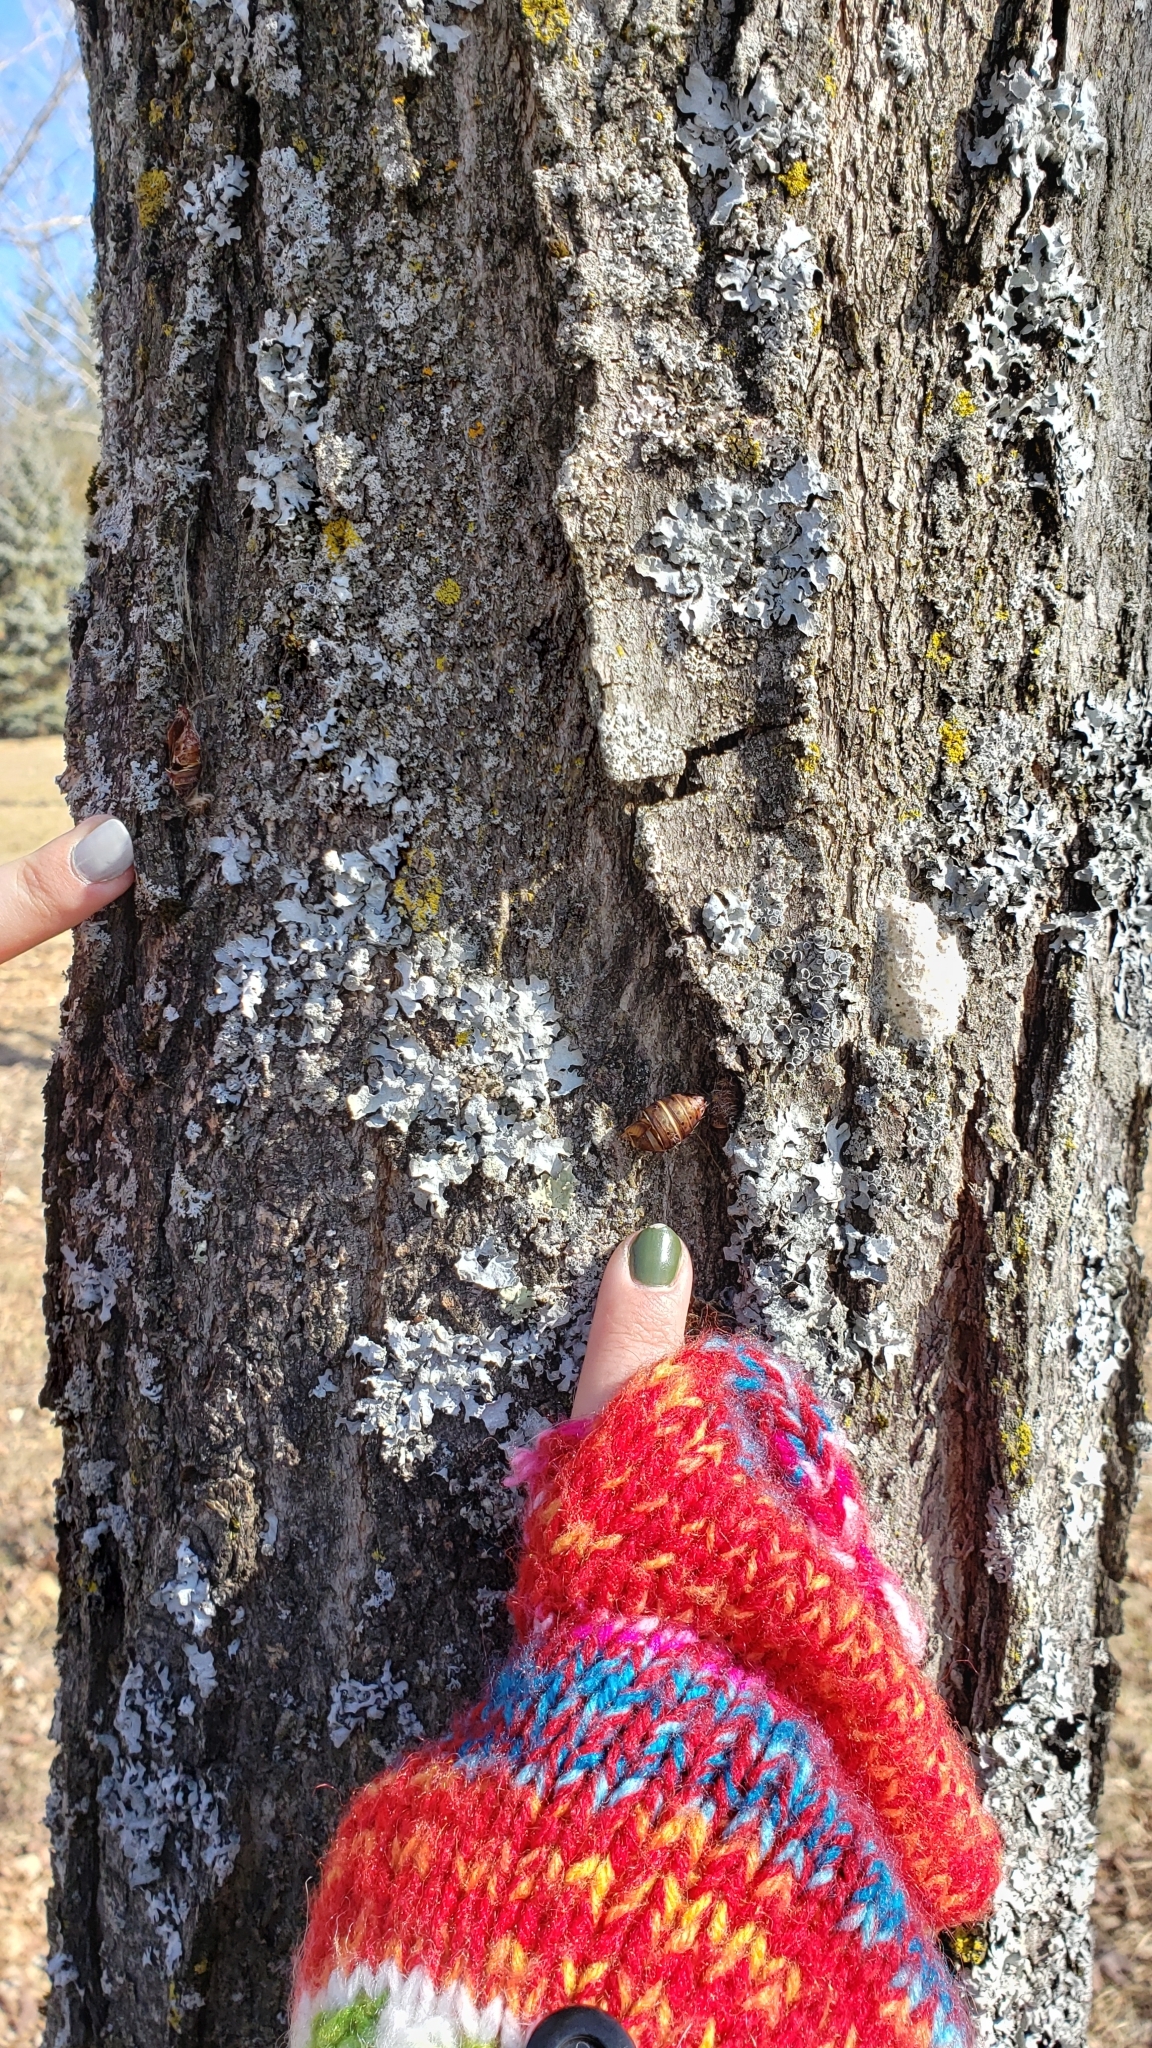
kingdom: Animalia
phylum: Arthropoda
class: Insecta
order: Lepidoptera
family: Erebidae
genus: Lymantria
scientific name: Lymantria dispar
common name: Gypsy moth
